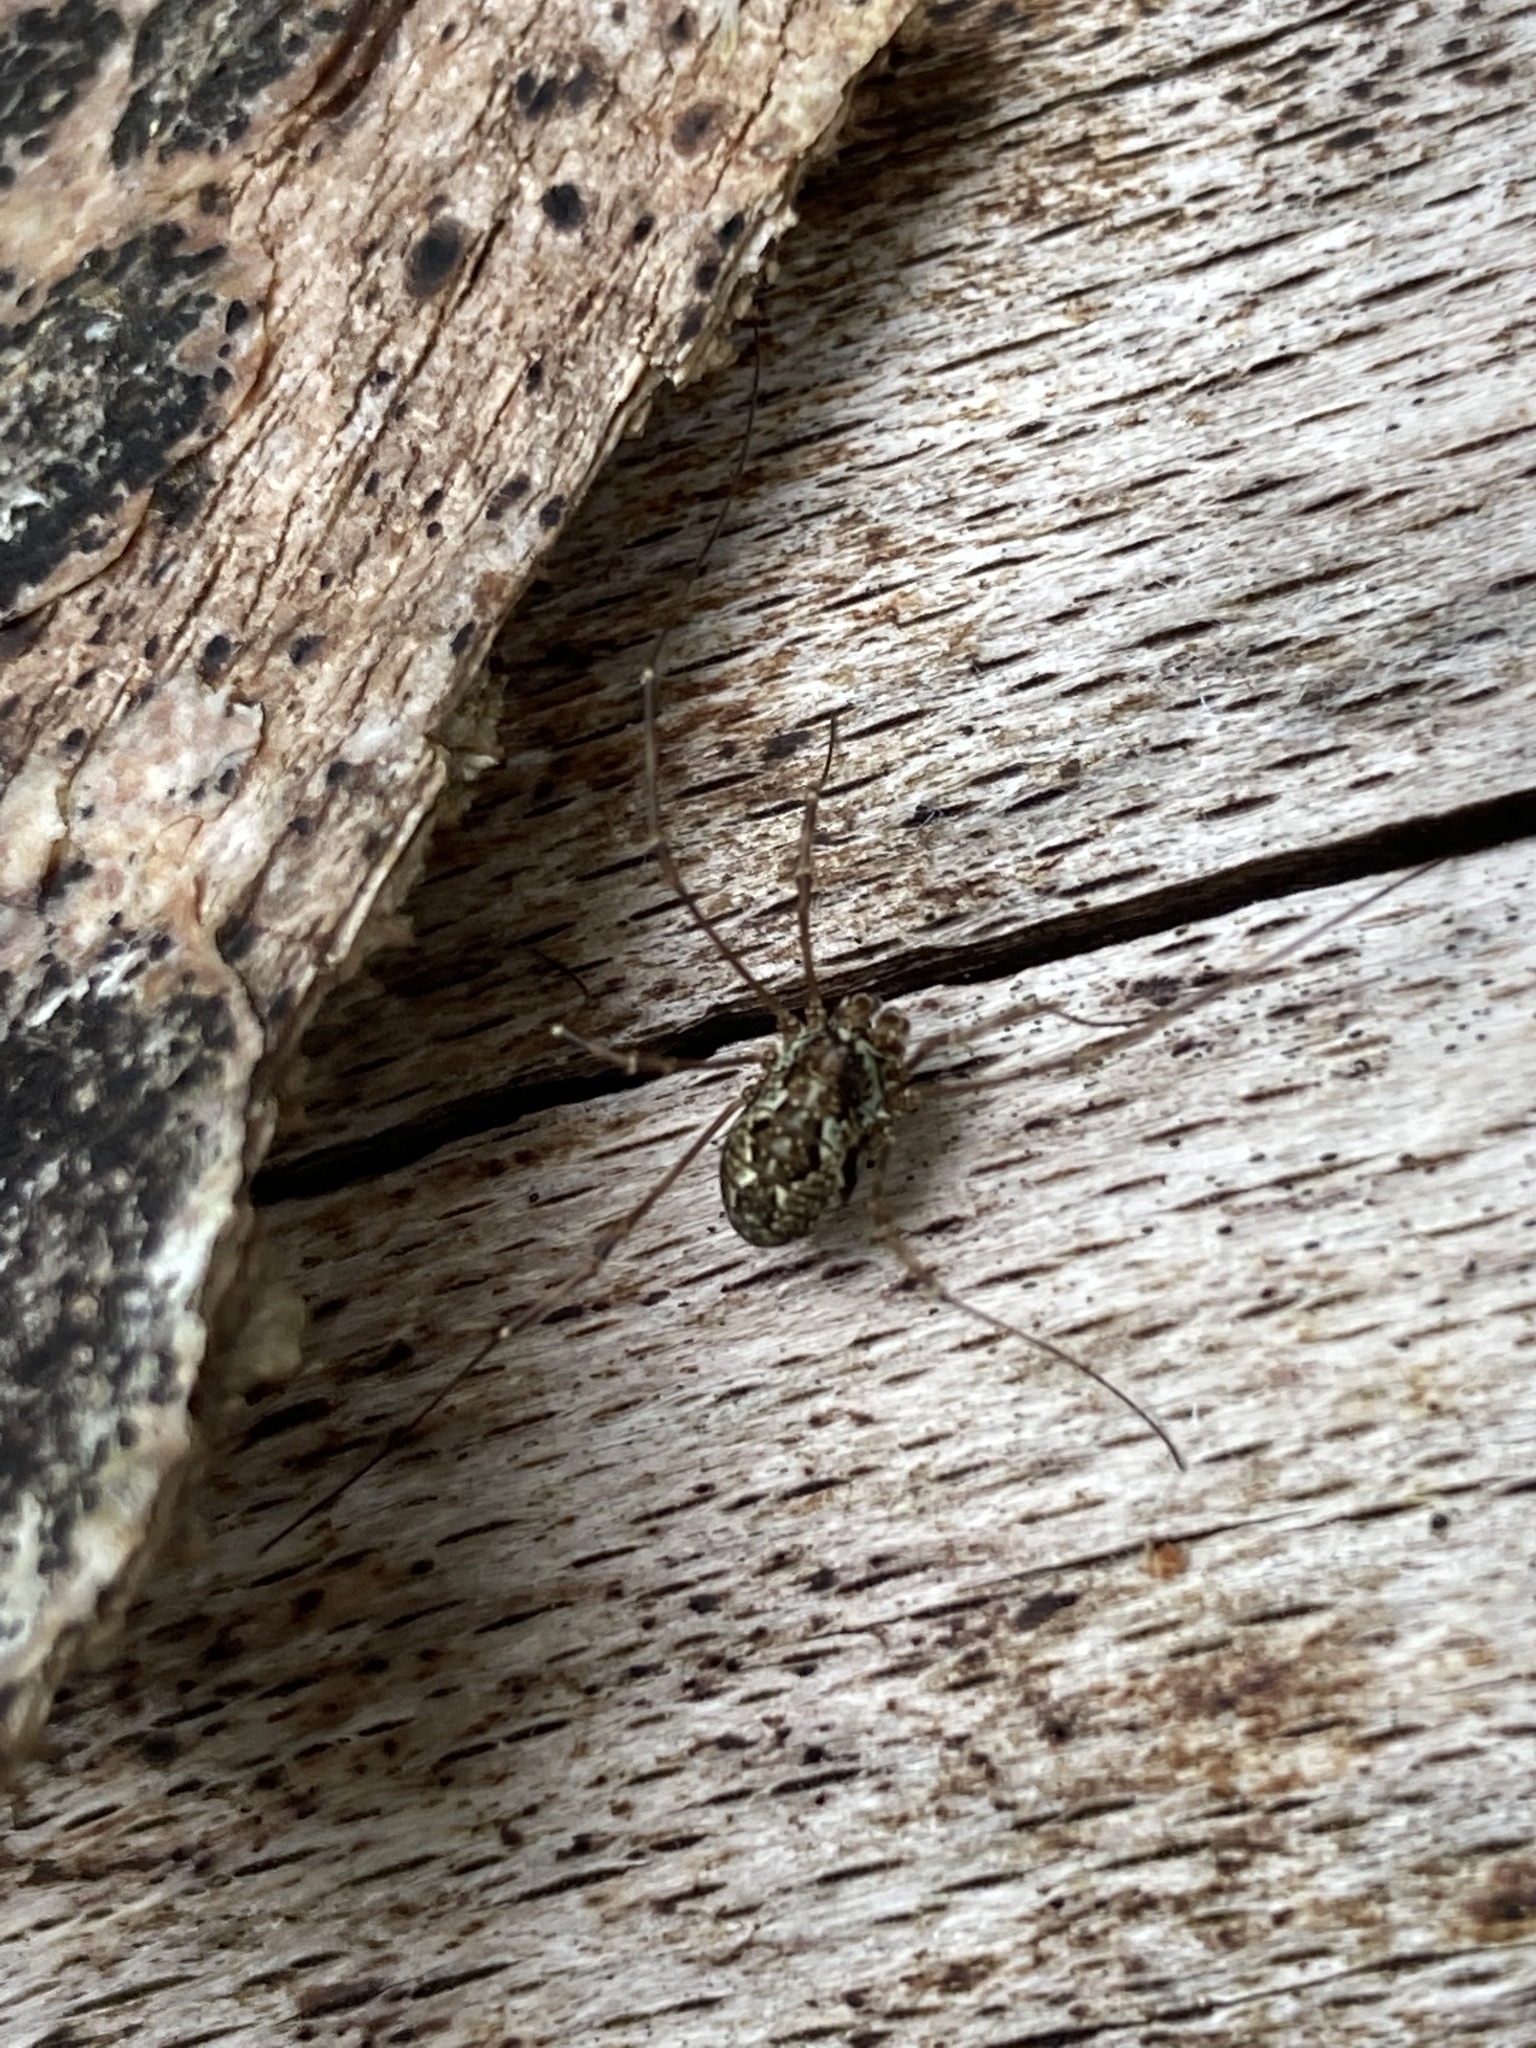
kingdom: Animalia
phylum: Arthropoda
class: Arachnida
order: Opiliones
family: Phalangiidae
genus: Megabunus
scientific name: Megabunus diadema
